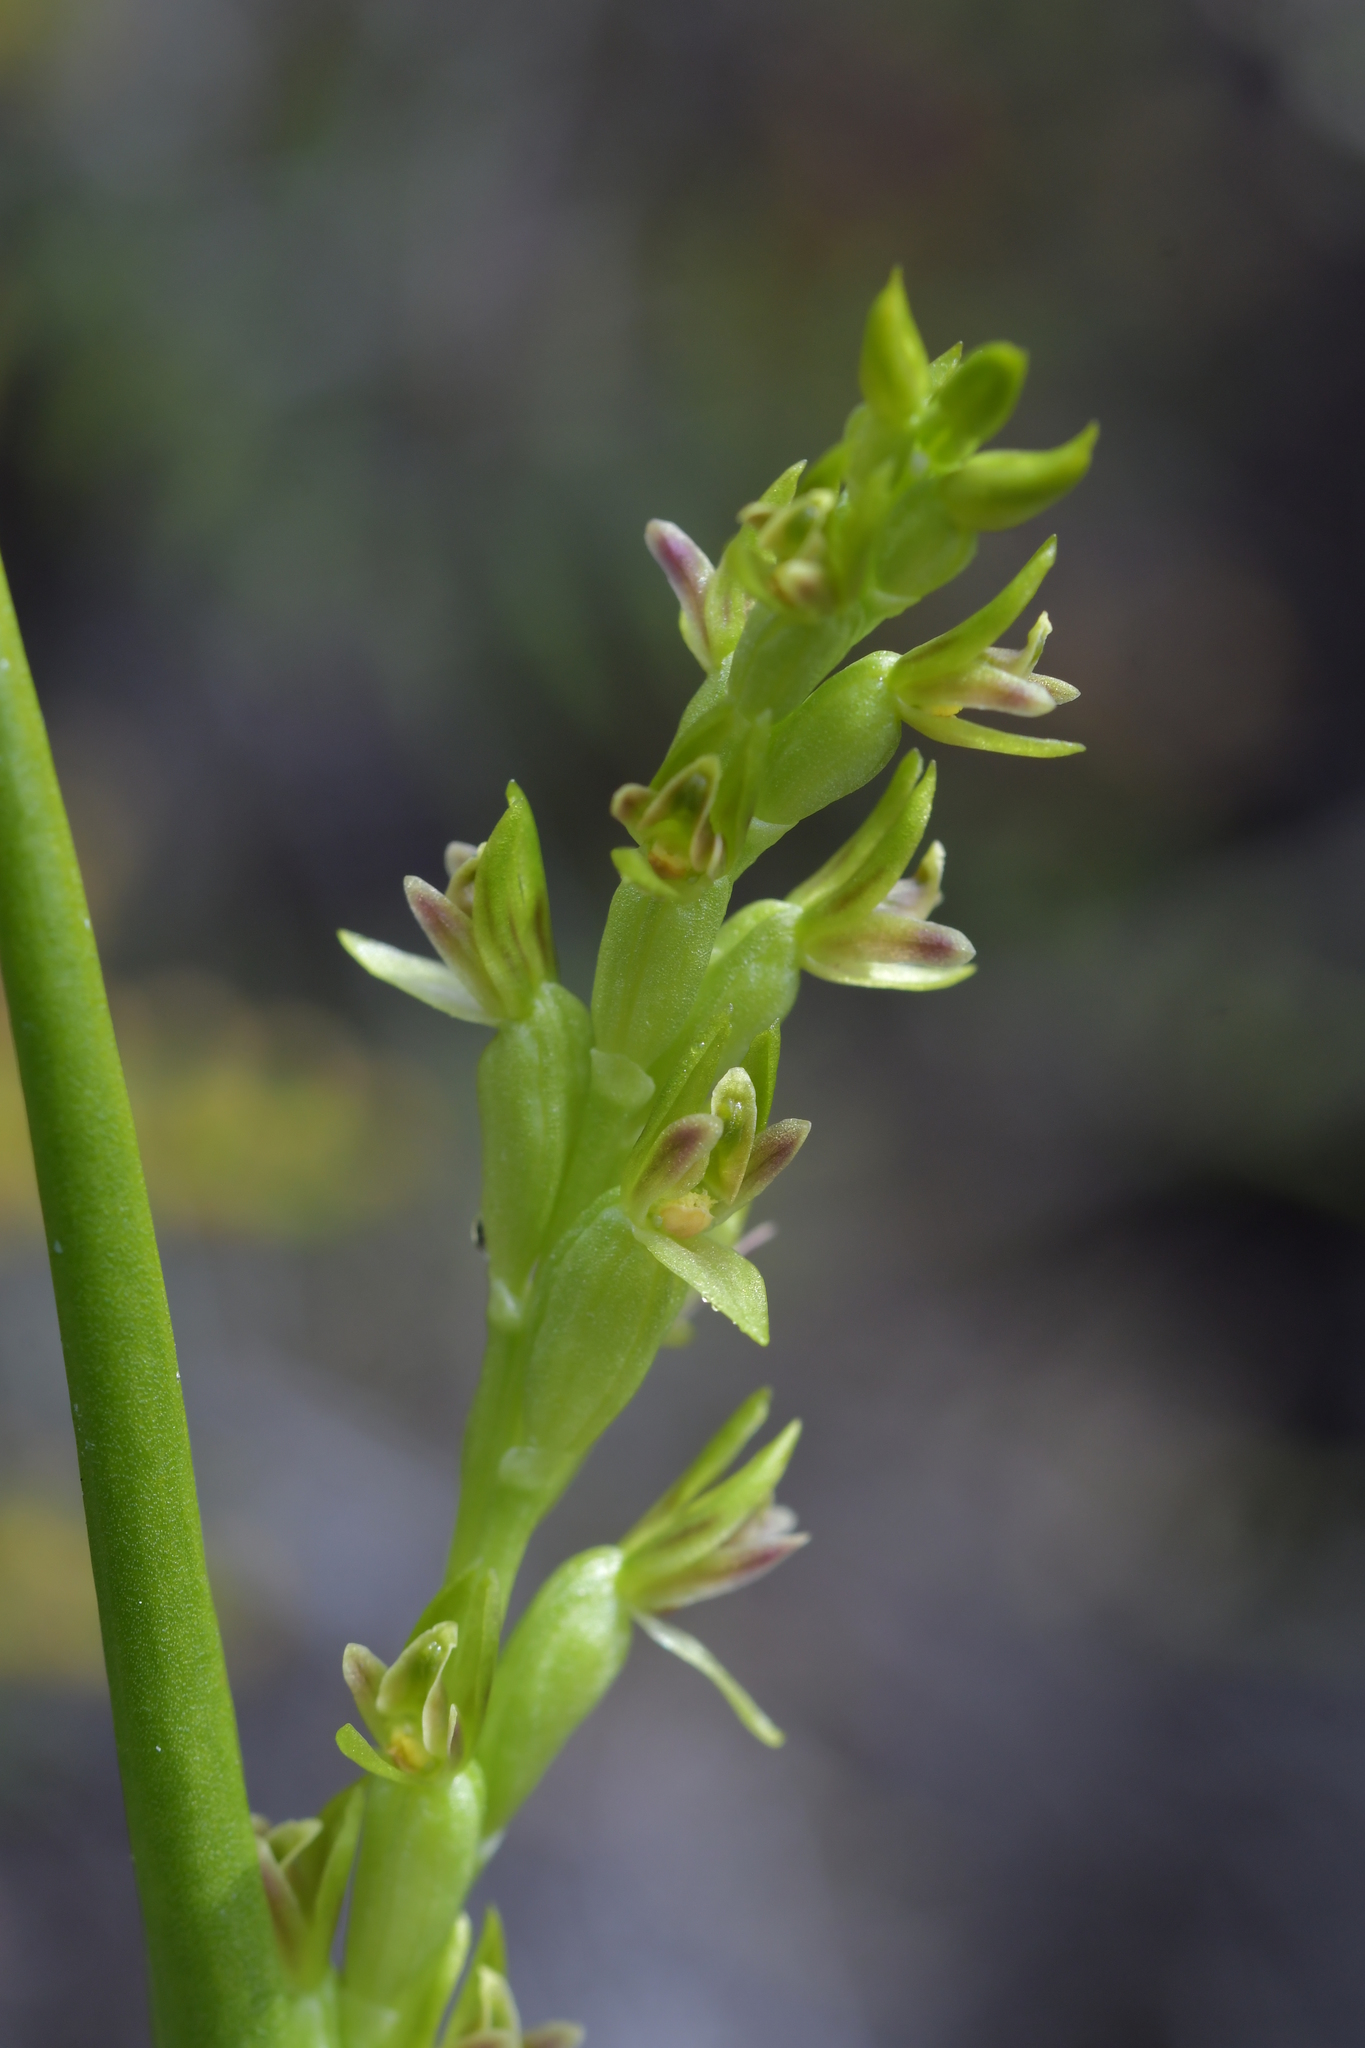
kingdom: Plantae
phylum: Tracheophyta
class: Liliopsida
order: Asparagales
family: Orchidaceae
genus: Prasophyllum
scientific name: Prasophyllum colensoi
